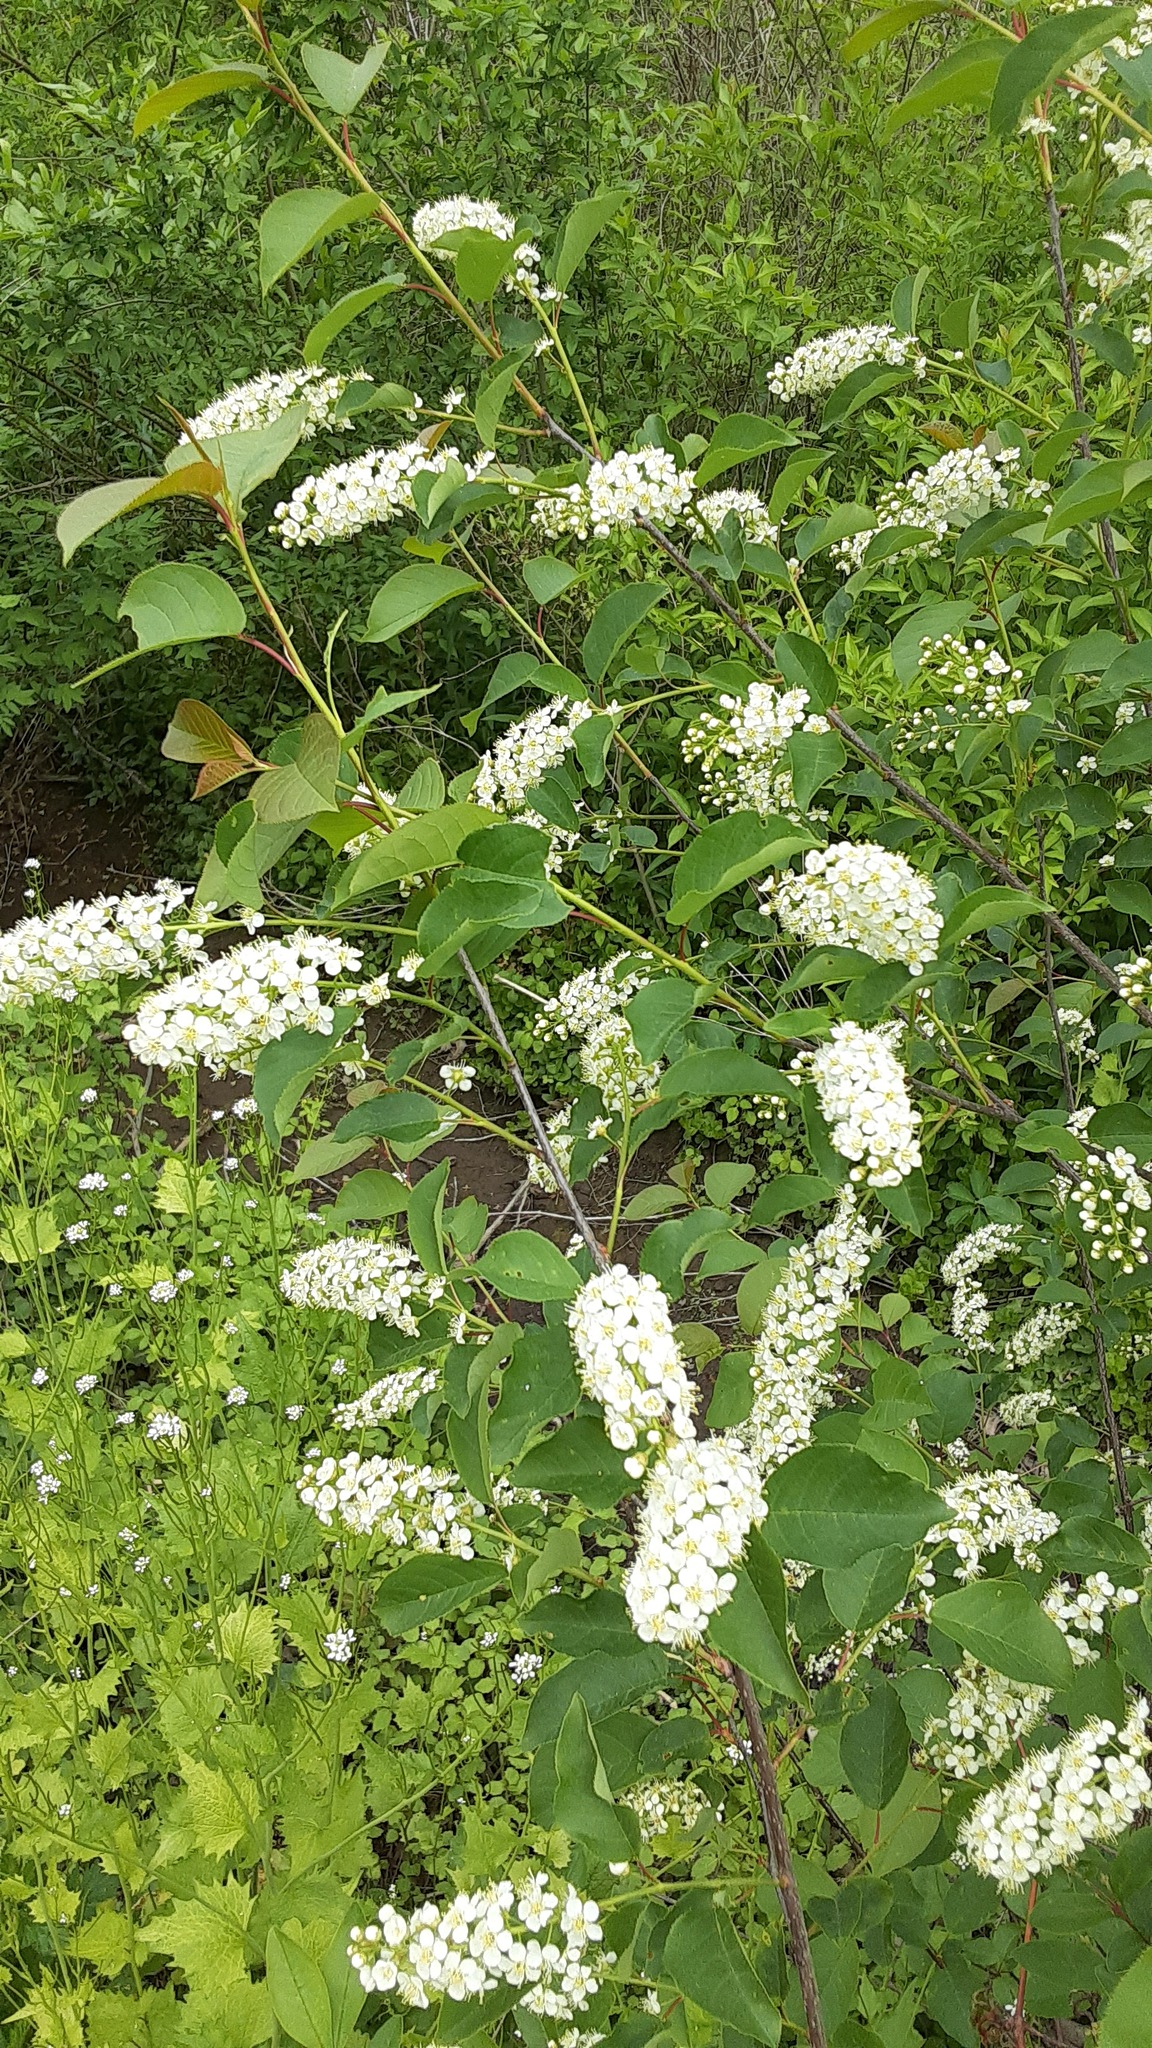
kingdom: Plantae
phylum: Tracheophyta
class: Magnoliopsida
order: Rosales
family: Rosaceae
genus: Prunus
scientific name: Prunus virginiana
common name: Chokecherry
